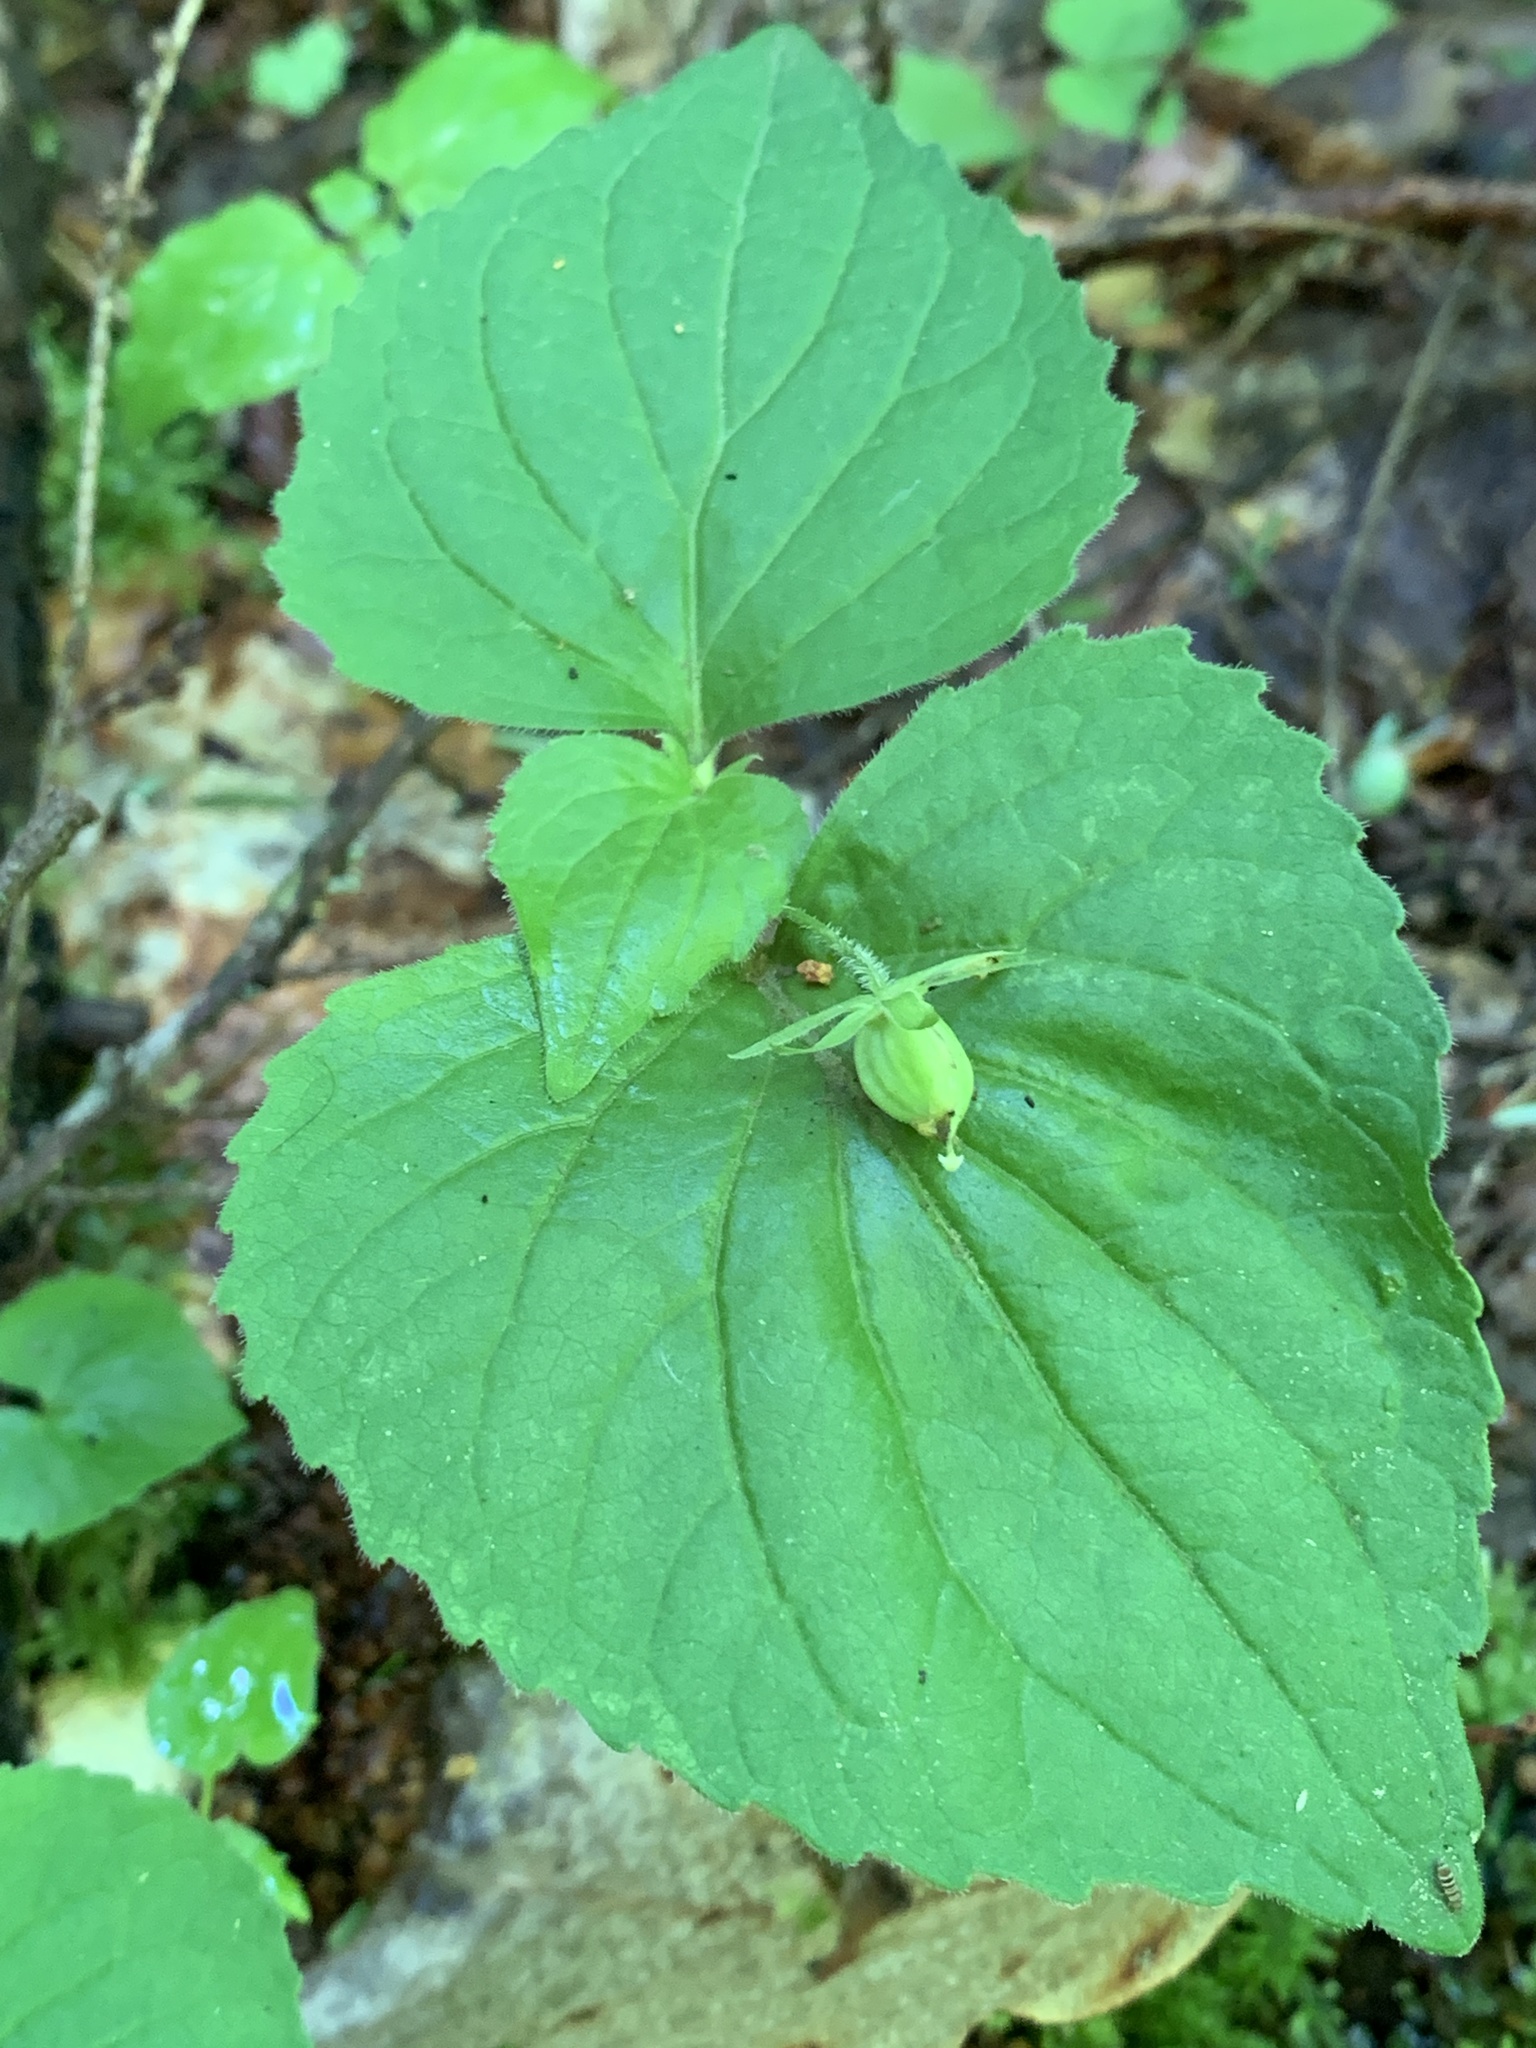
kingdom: Plantae
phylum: Tracheophyta
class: Magnoliopsida
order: Malpighiales
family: Violaceae
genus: Viola
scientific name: Viola pubescens
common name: Yellow forest violet
